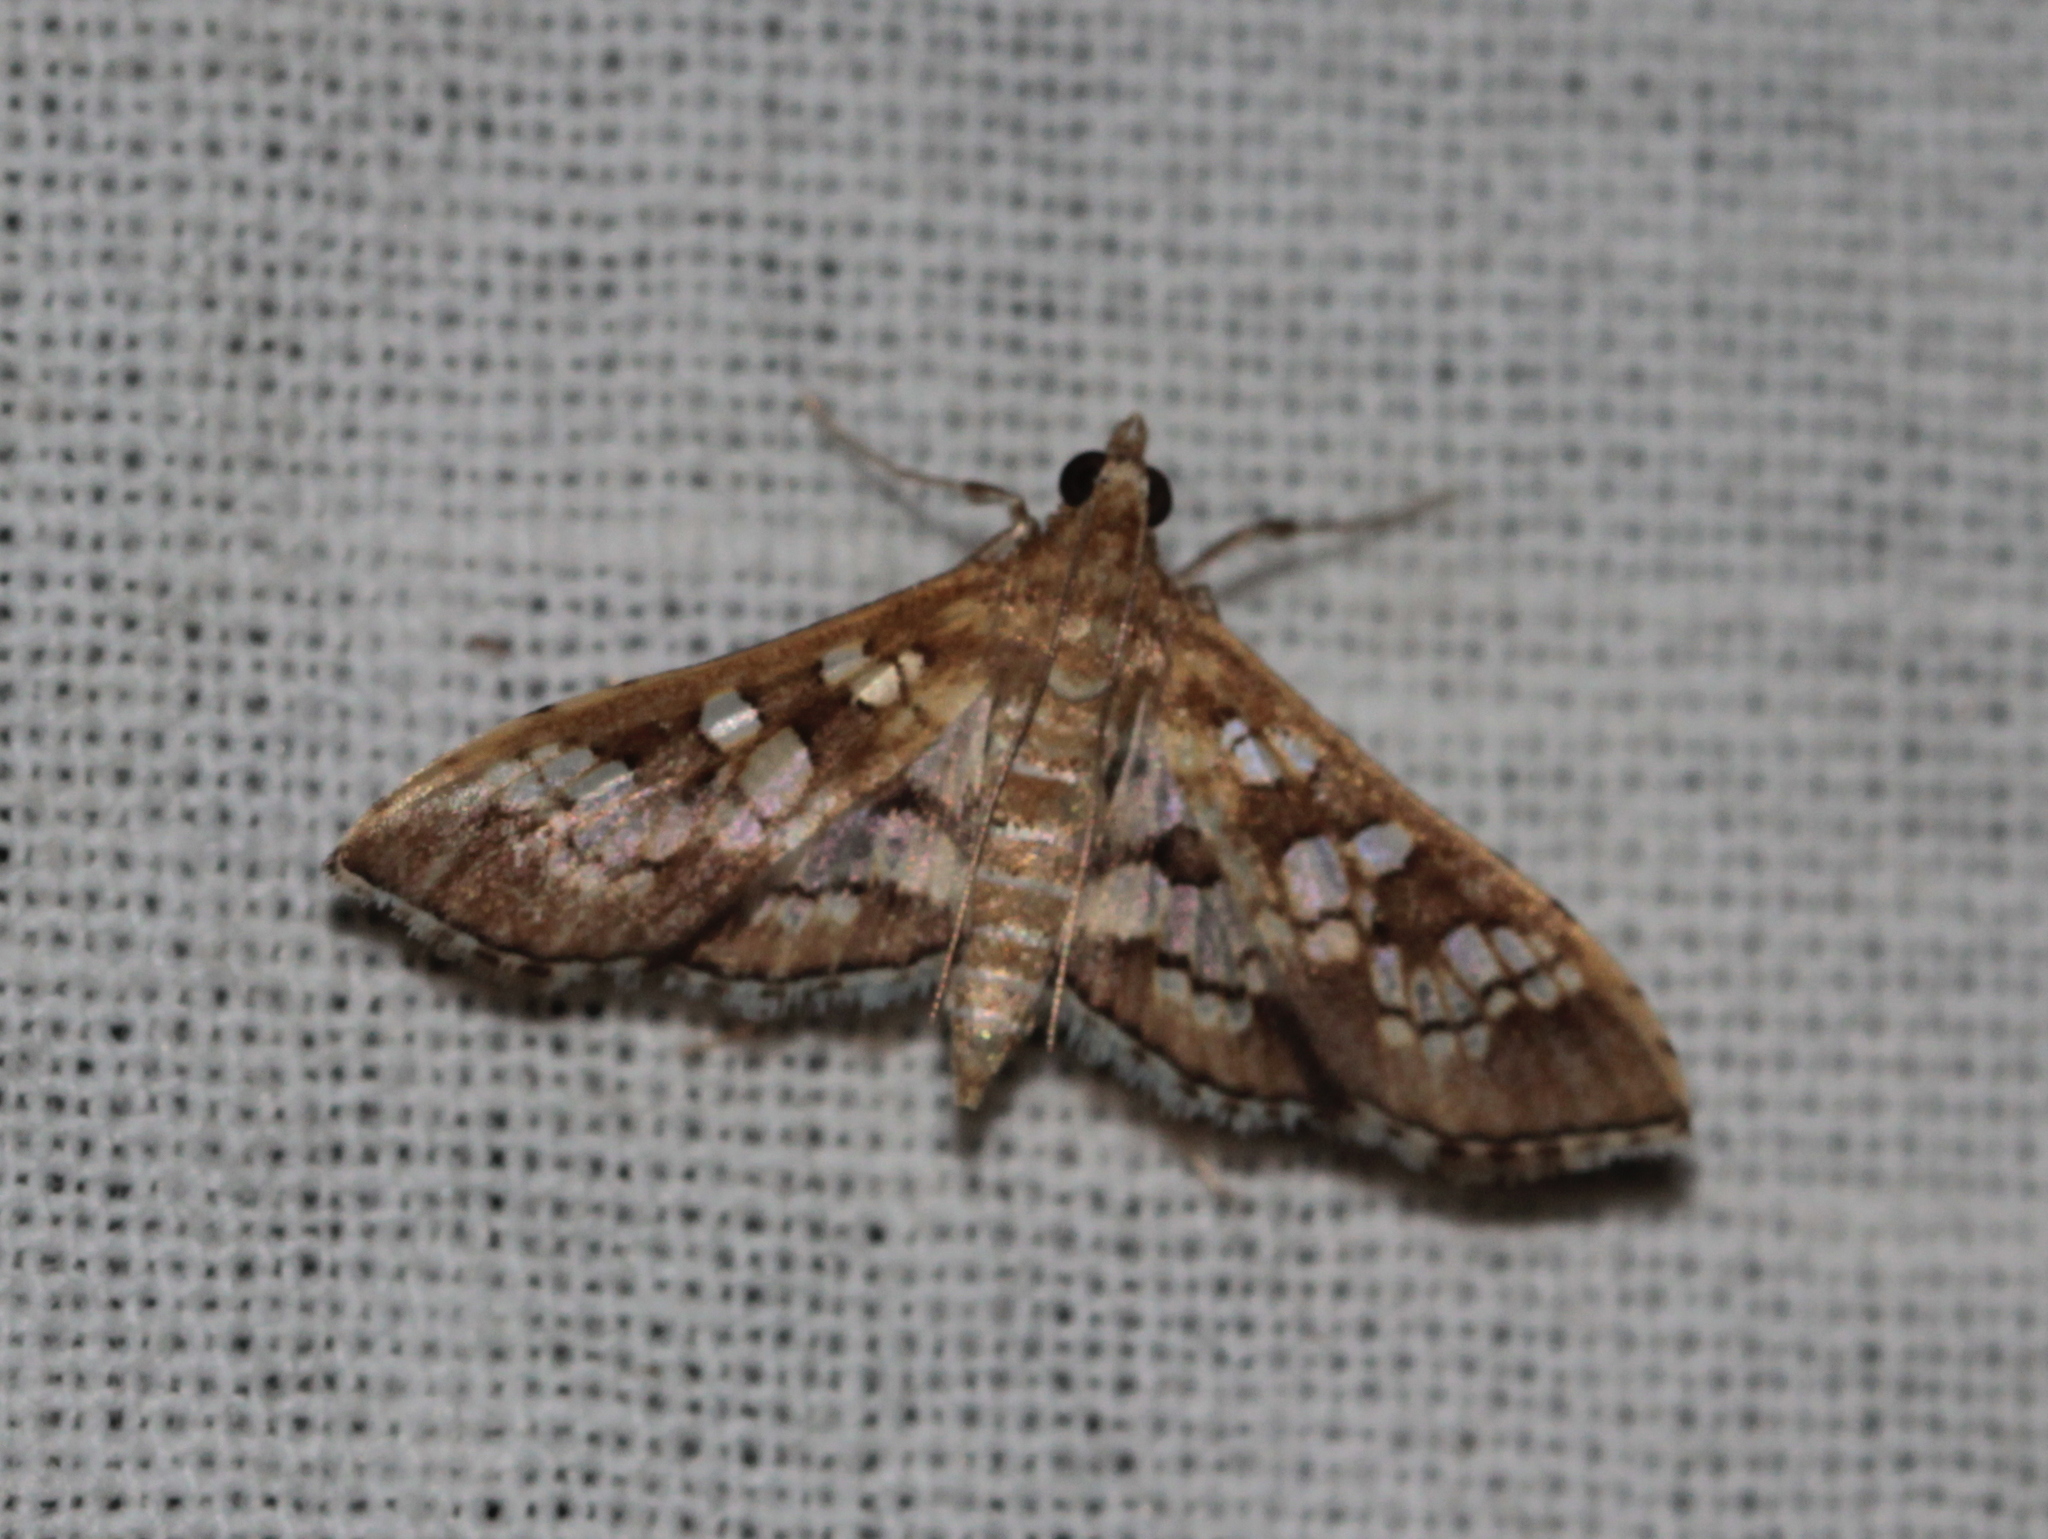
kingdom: Animalia
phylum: Arthropoda
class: Insecta
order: Lepidoptera
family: Crambidae
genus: Sameodes
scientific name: Sameodes cancellalis
